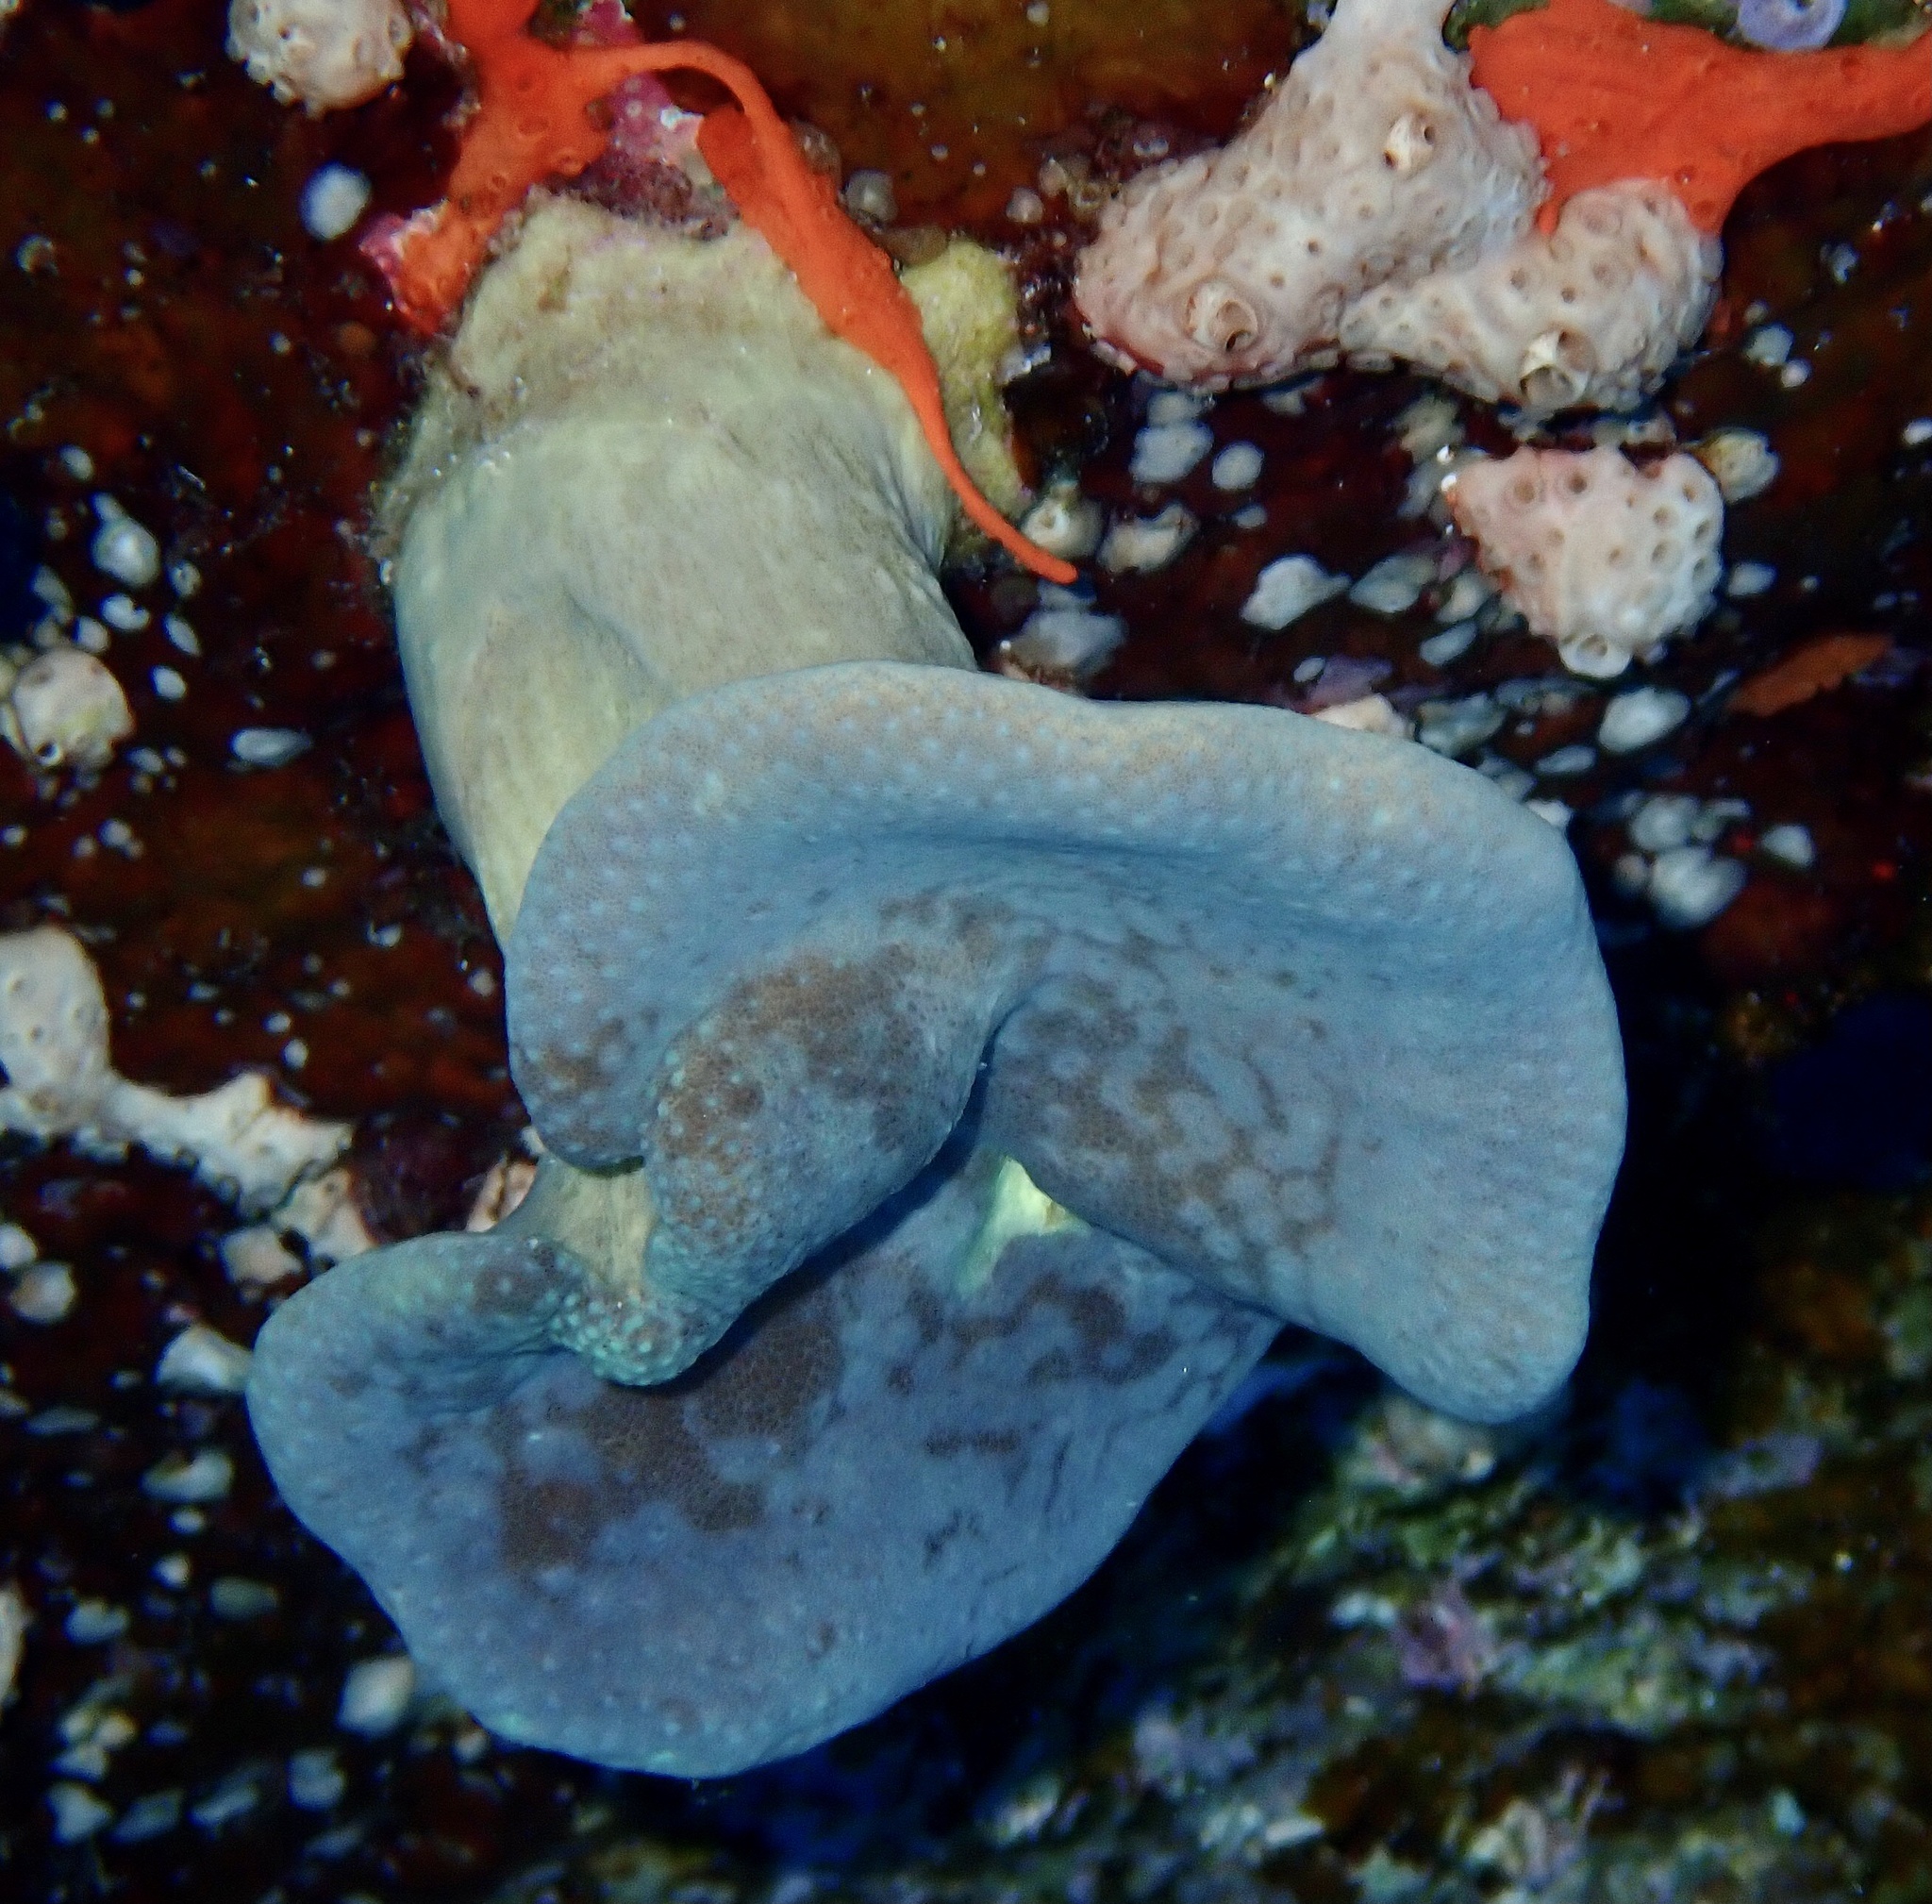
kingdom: Animalia
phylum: Cnidaria
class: Anthozoa
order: Malacalcyonacea
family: Sarcophytidae
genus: Sarcophyton
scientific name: Sarcophyton
